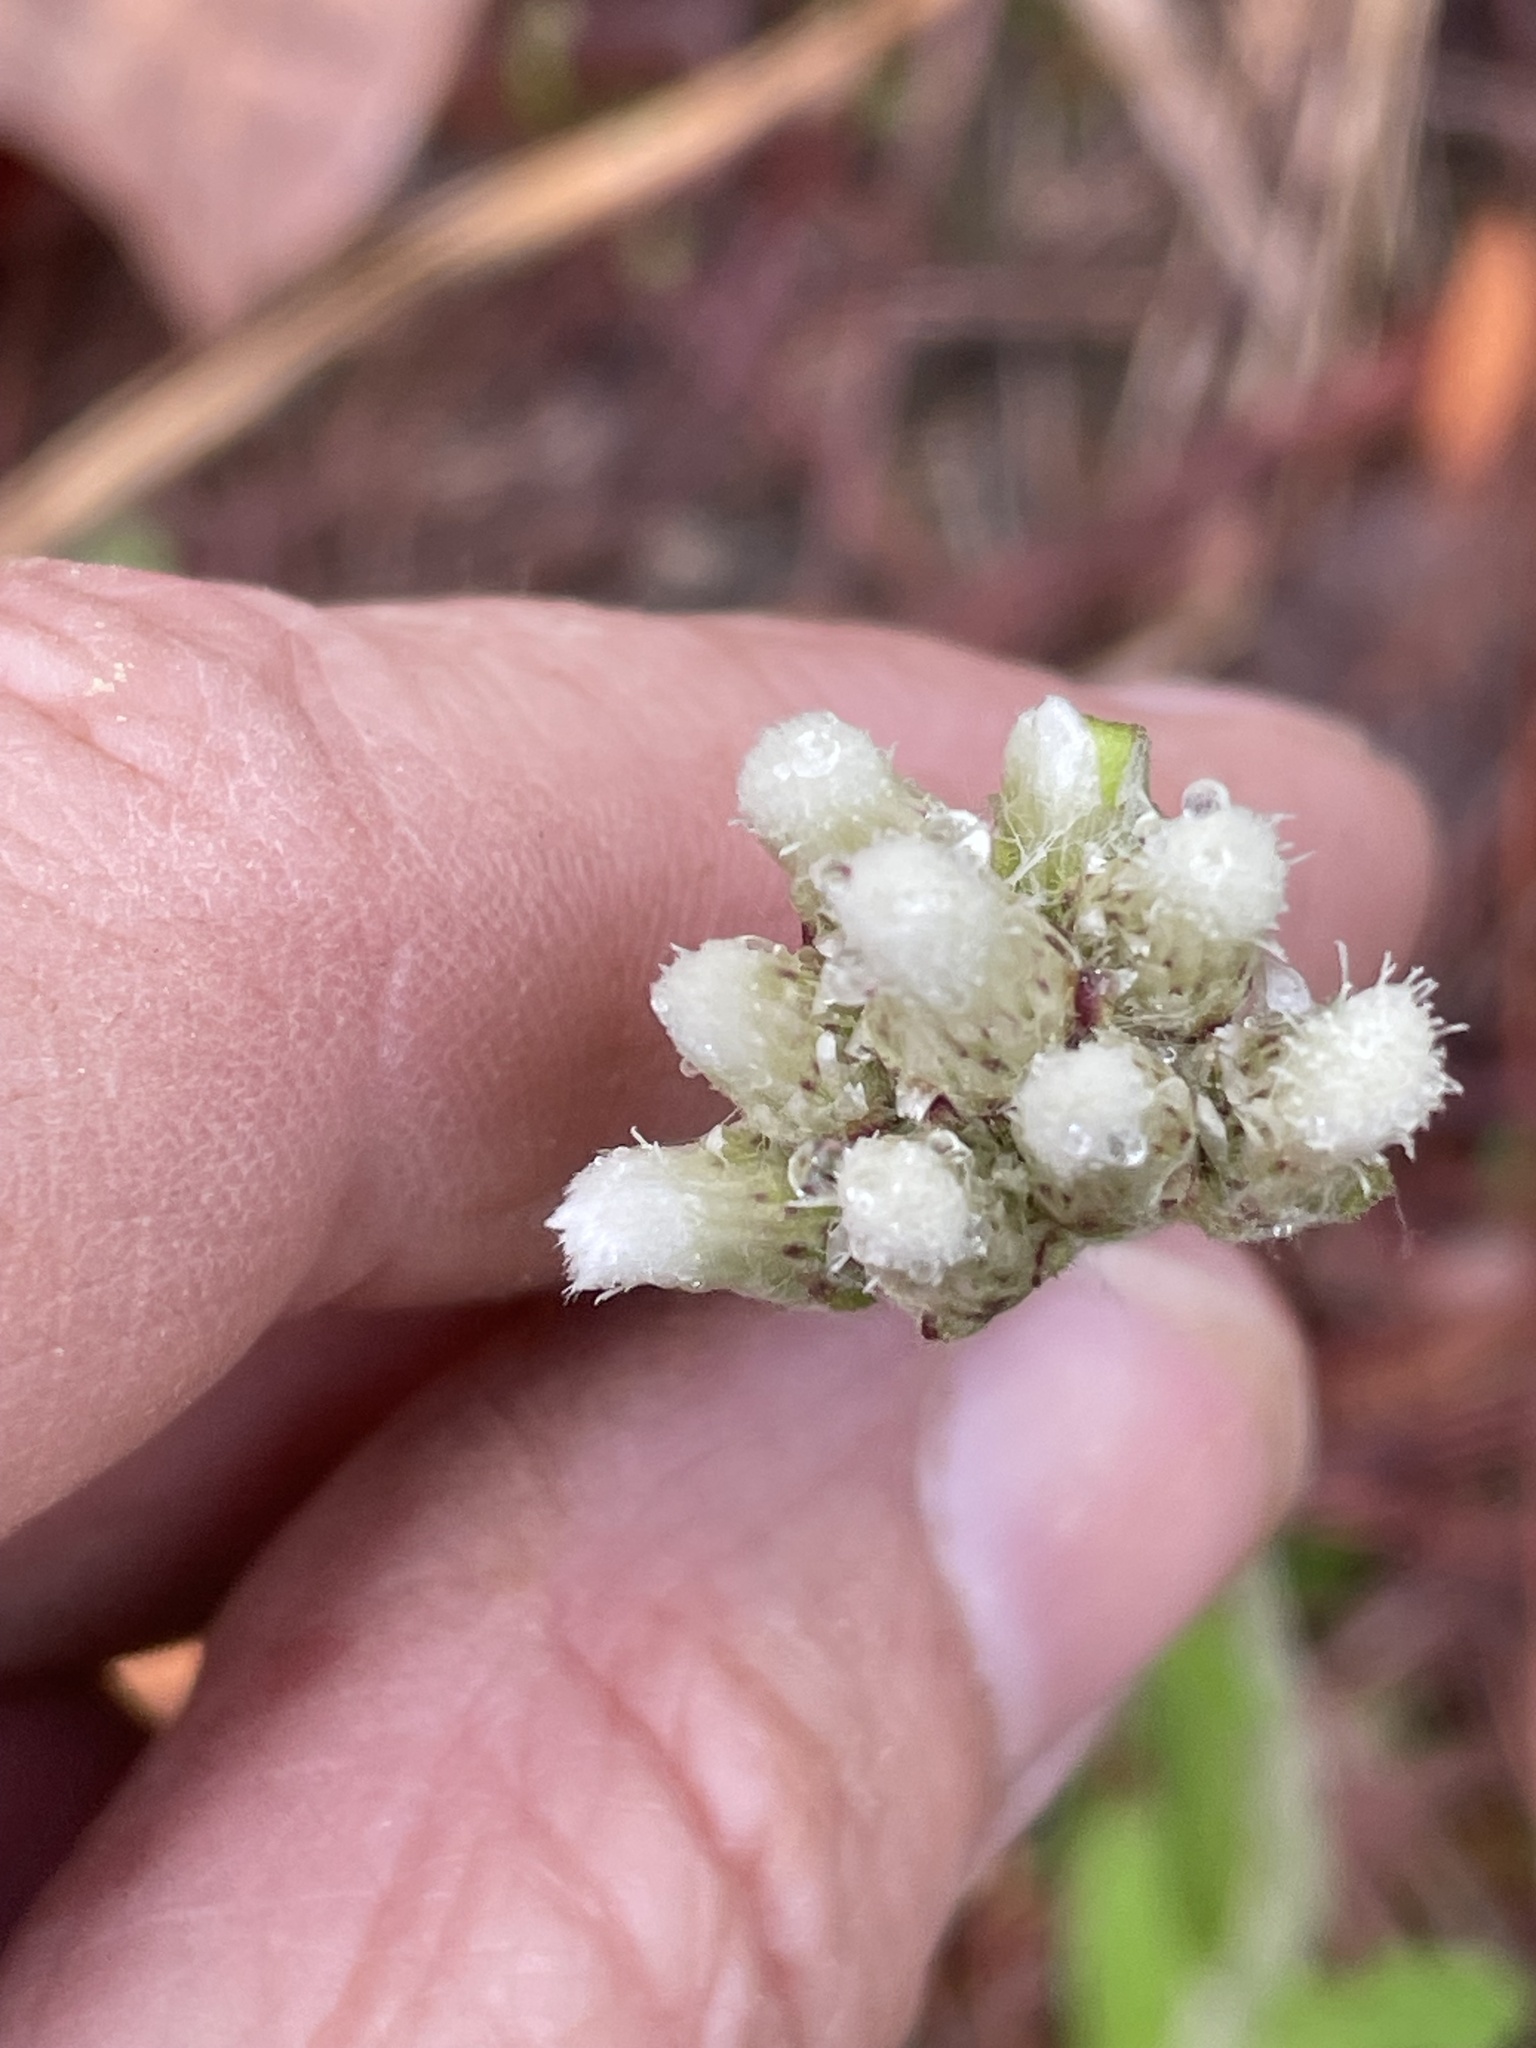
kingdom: Plantae
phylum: Tracheophyta
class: Magnoliopsida
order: Asterales
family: Asteraceae
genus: Antennaria
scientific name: Antennaria parlinii
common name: Parlin's pussytoes
